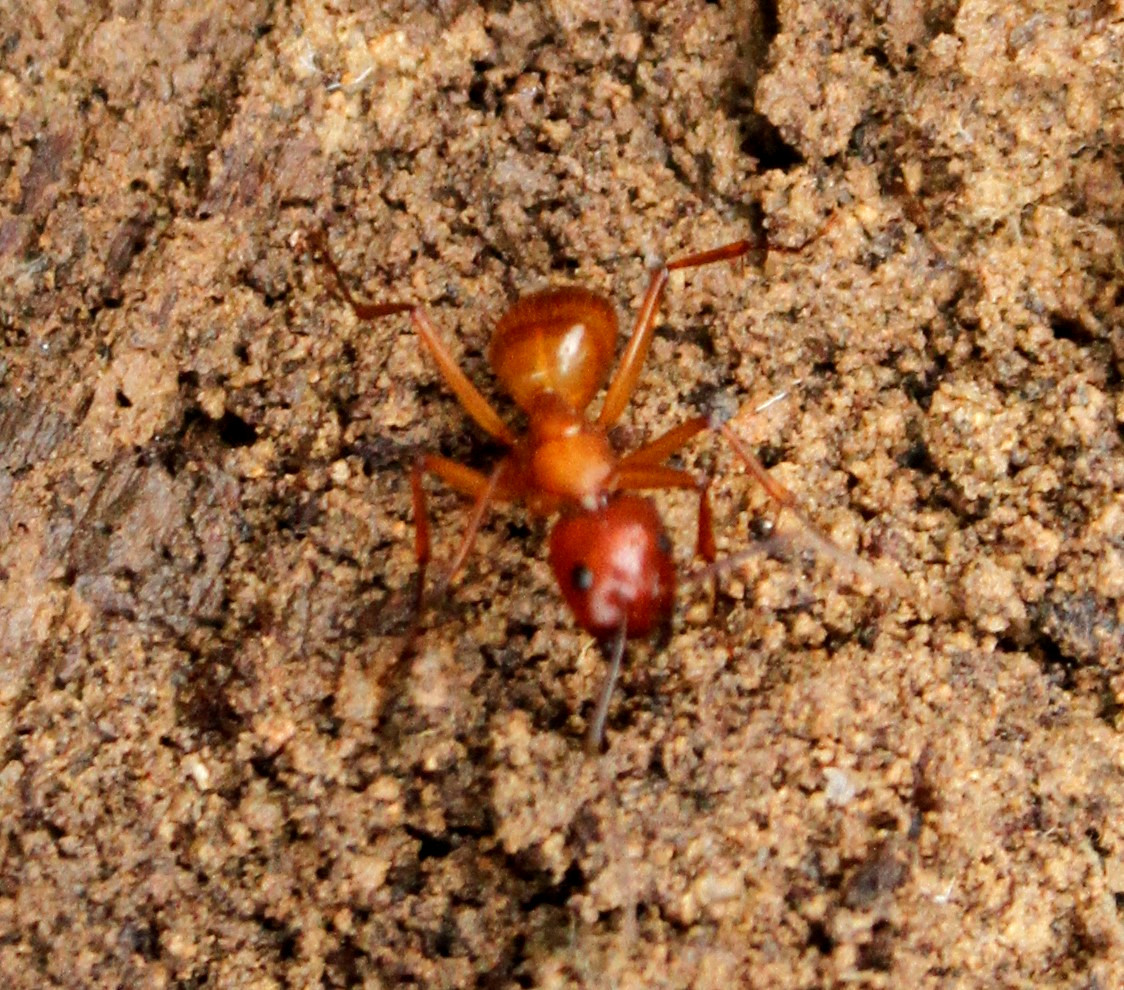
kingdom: Animalia
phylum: Arthropoda
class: Insecta
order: Hymenoptera
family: Formicidae
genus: Camponotus
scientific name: Camponotus castaneus
